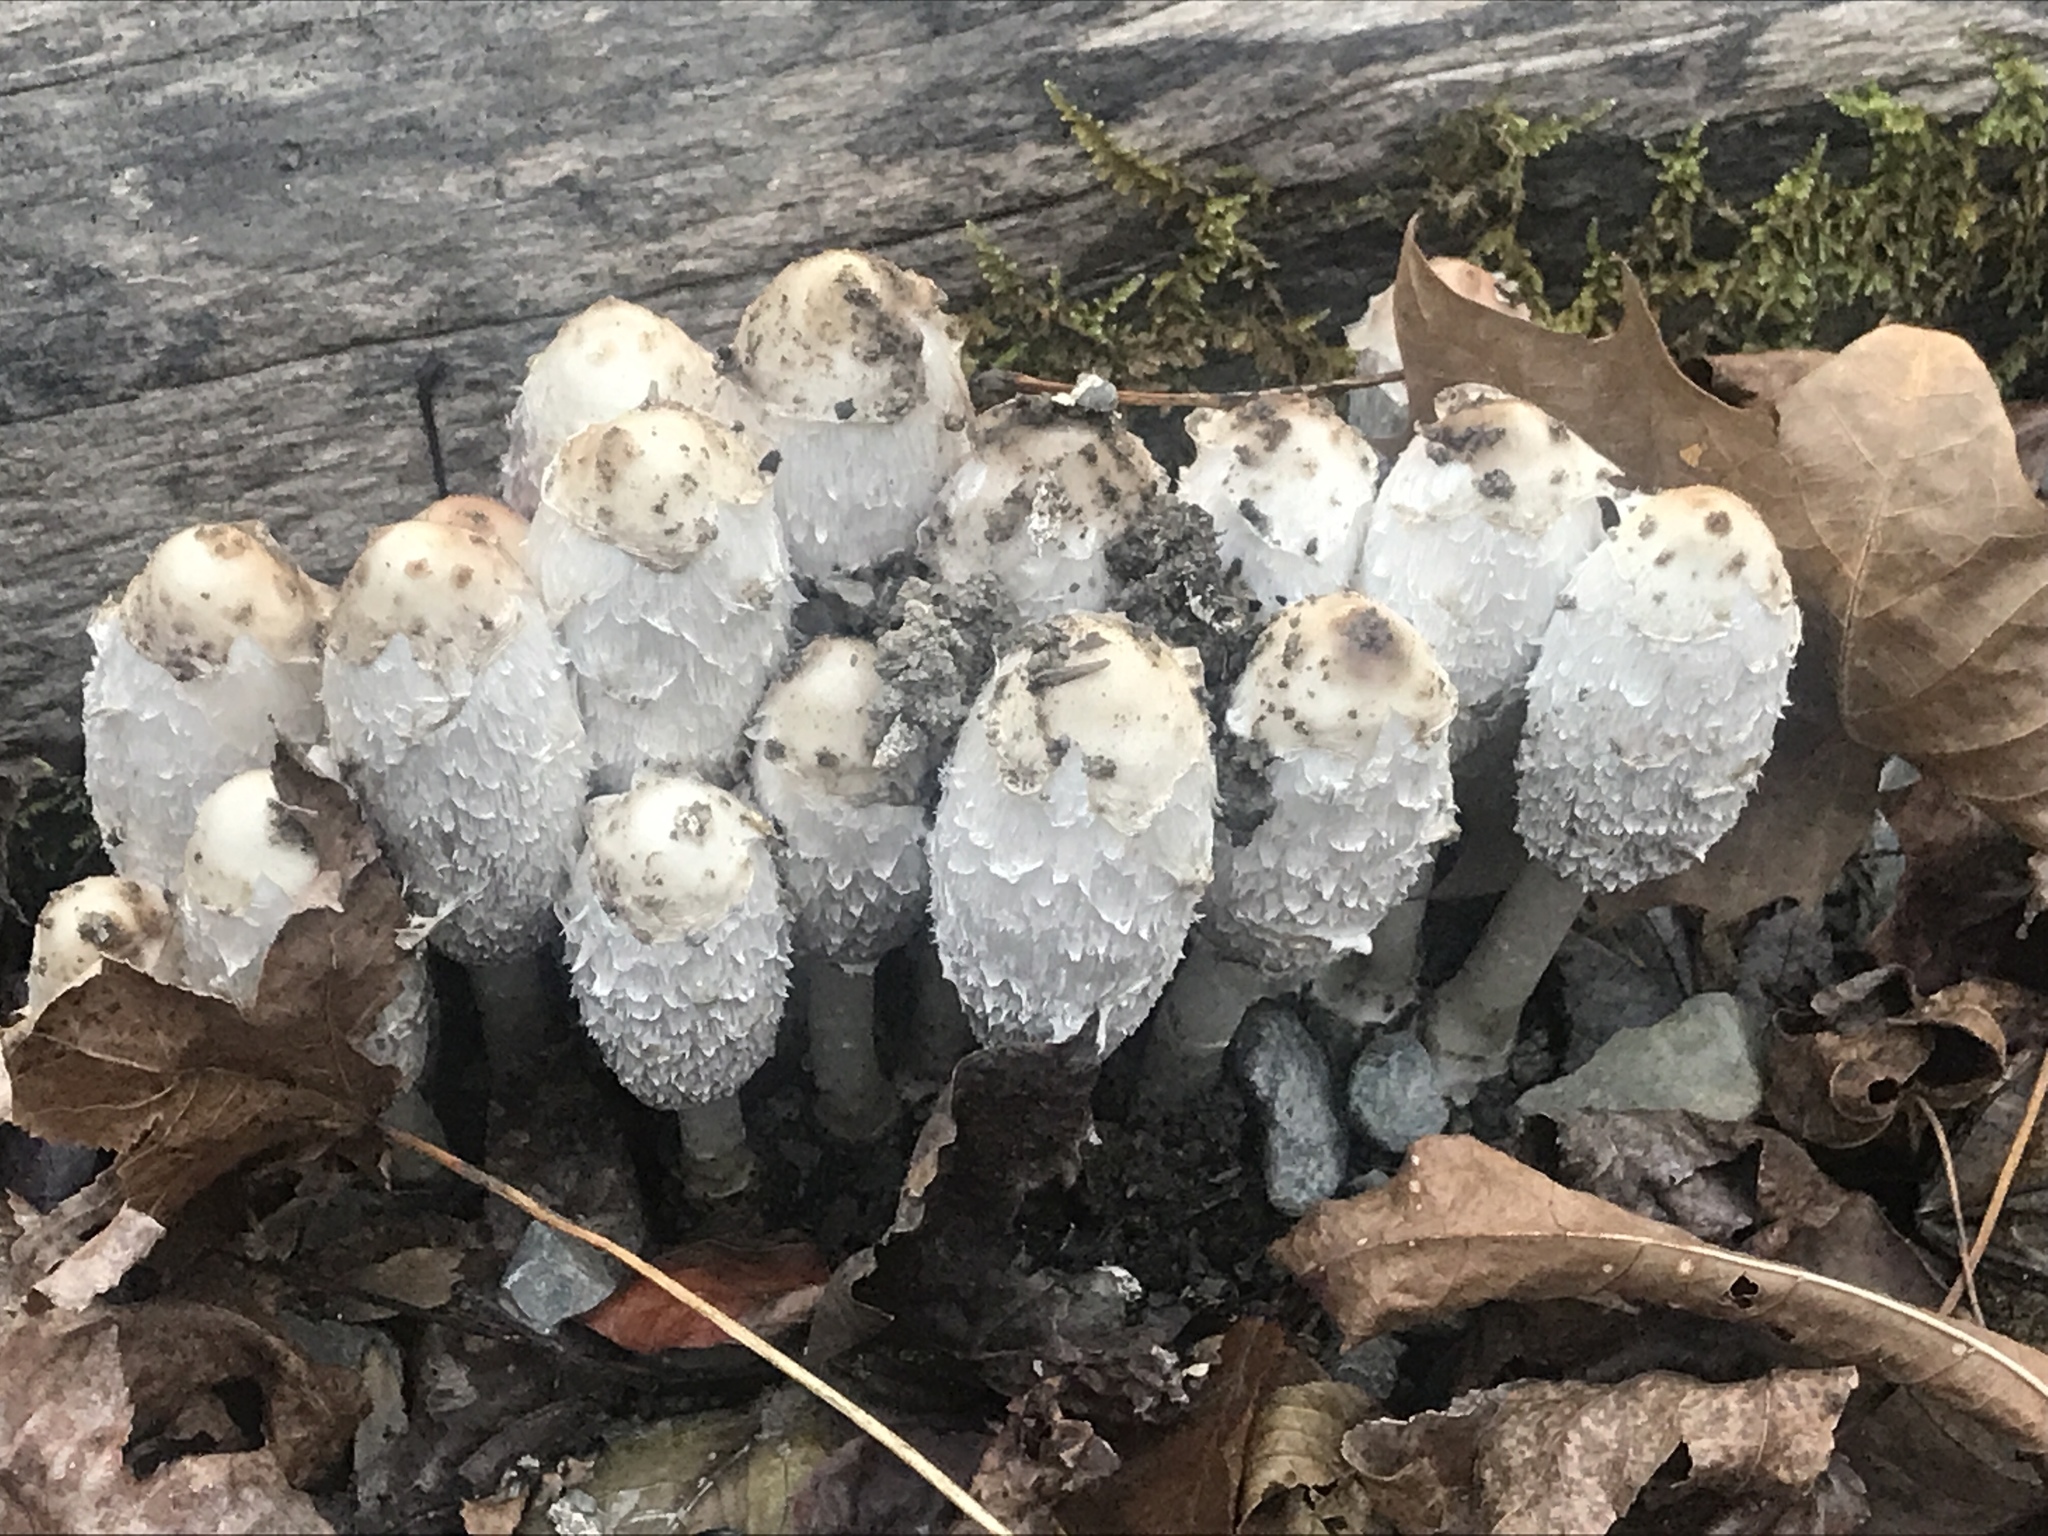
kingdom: Fungi
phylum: Basidiomycota
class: Agaricomycetes
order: Agaricales
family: Agaricaceae
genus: Coprinus
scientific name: Coprinus comatus
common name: Lawyer's wig
